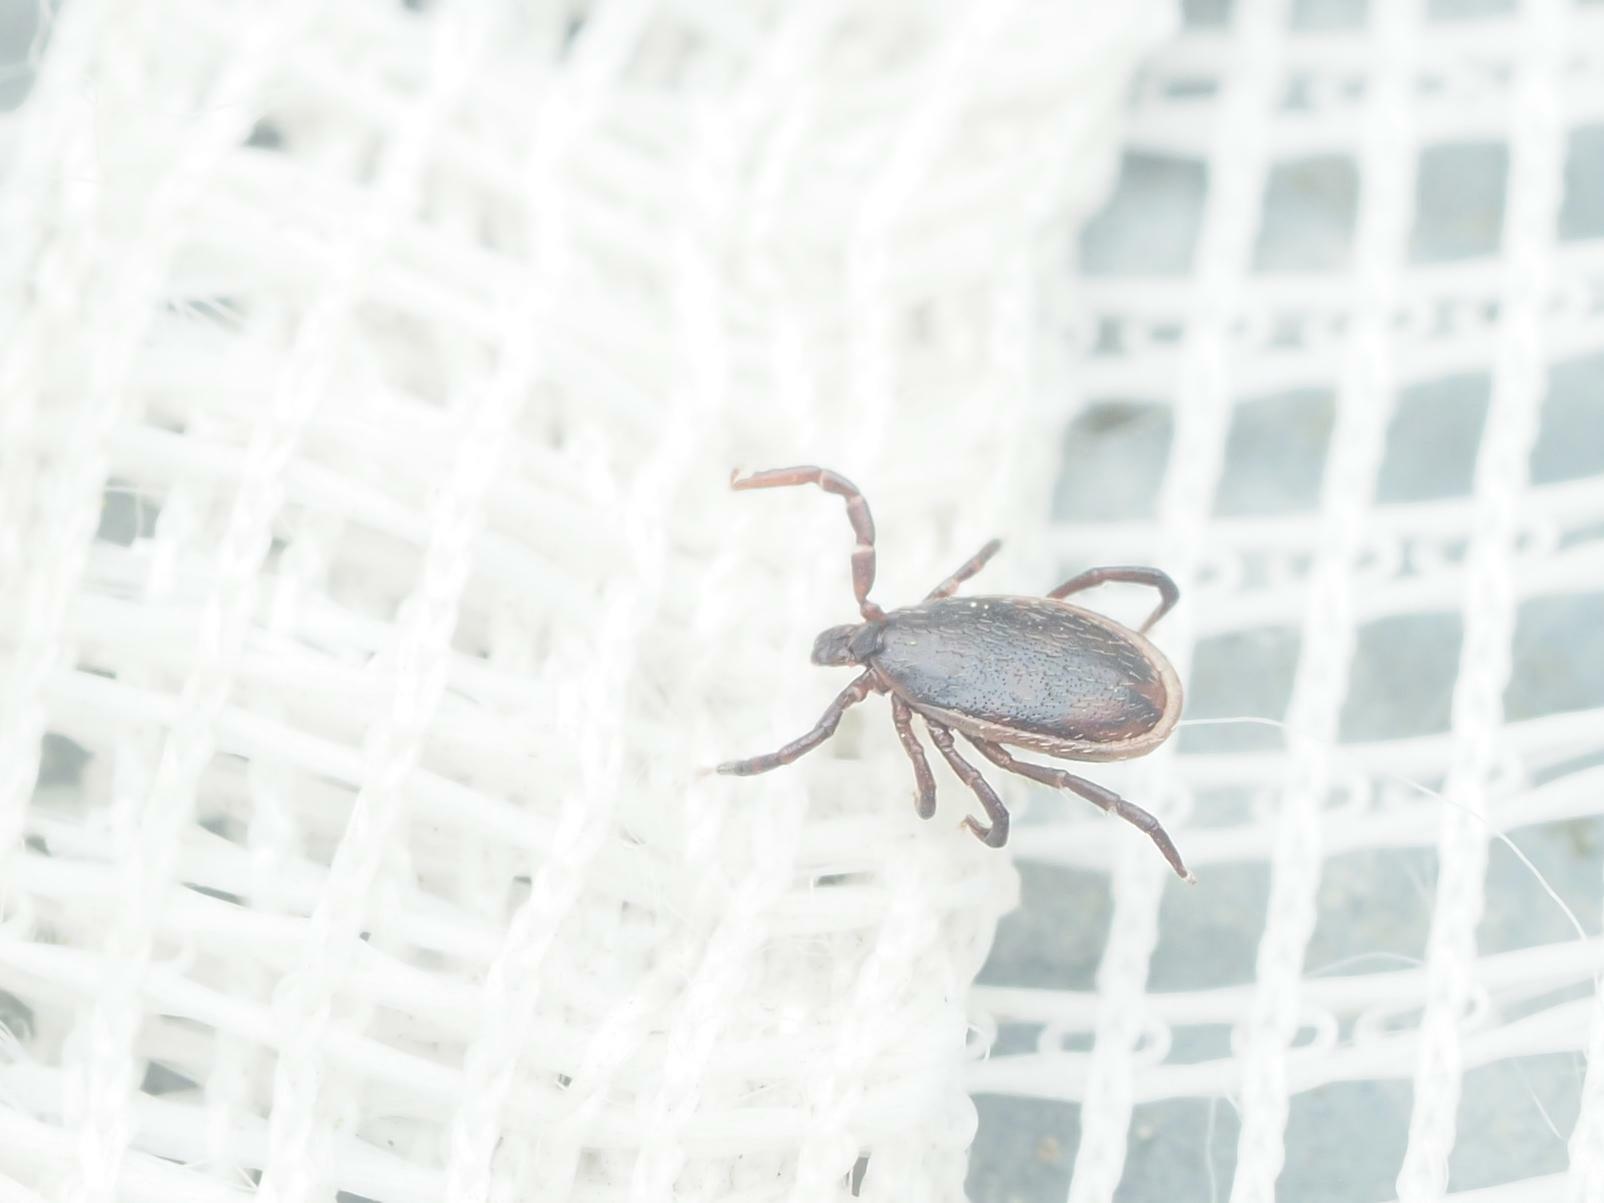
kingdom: Animalia
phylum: Arthropoda
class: Arachnida
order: Ixodida
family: Ixodidae
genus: Ixodes
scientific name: Ixodes ricinus
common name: Castor bean tick
